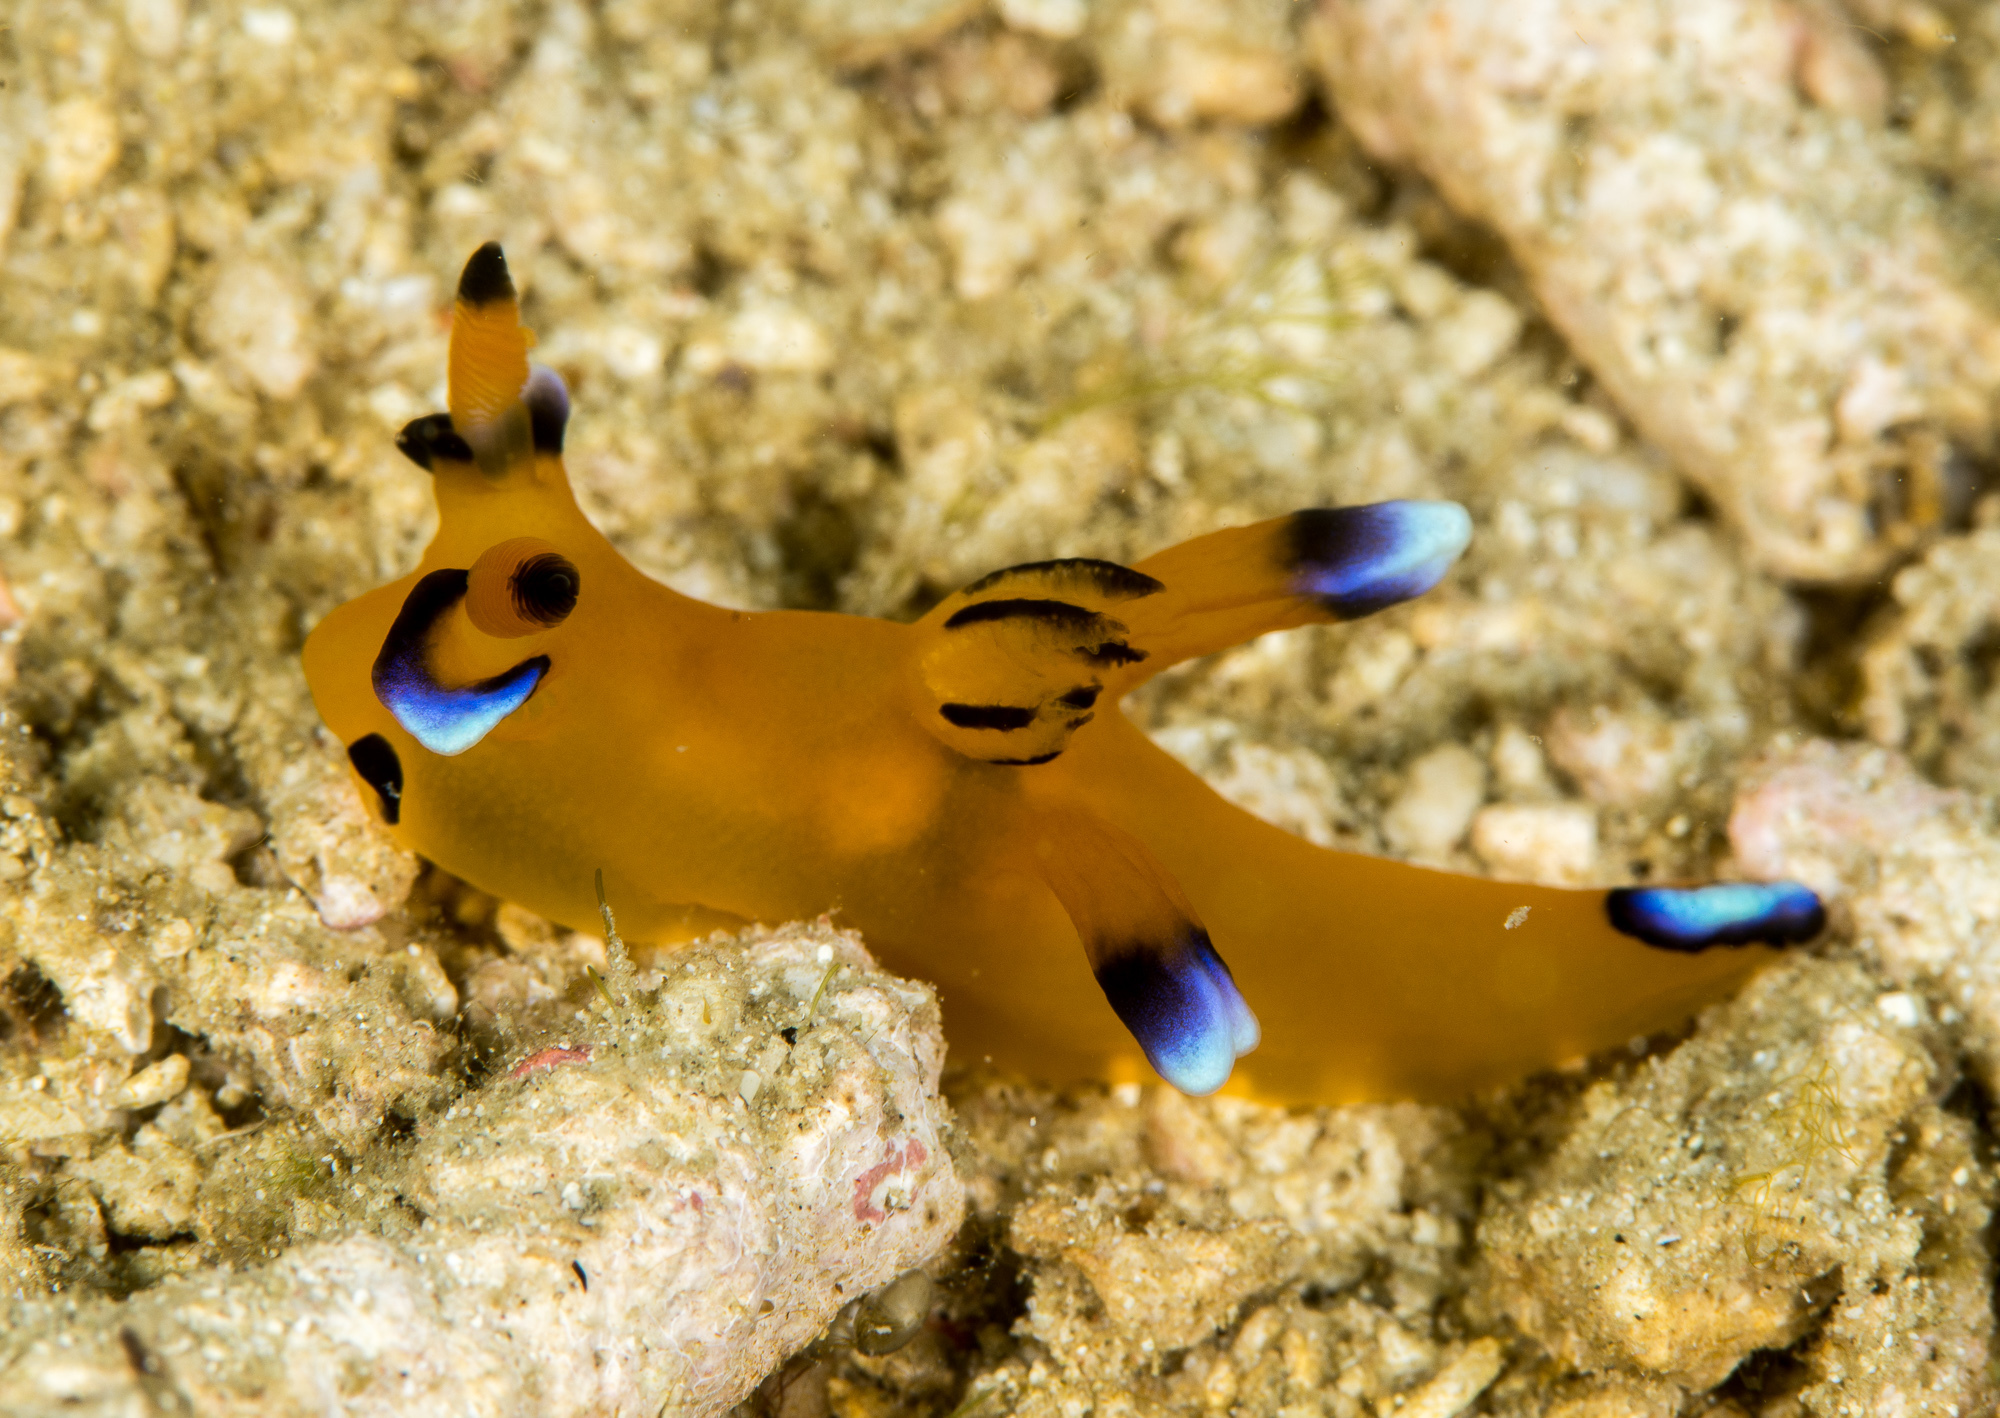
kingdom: Animalia
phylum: Mollusca
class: Gastropoda
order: Nudibranchia
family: Polyceridae
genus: Thecacera
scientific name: Thecacera pacifica
